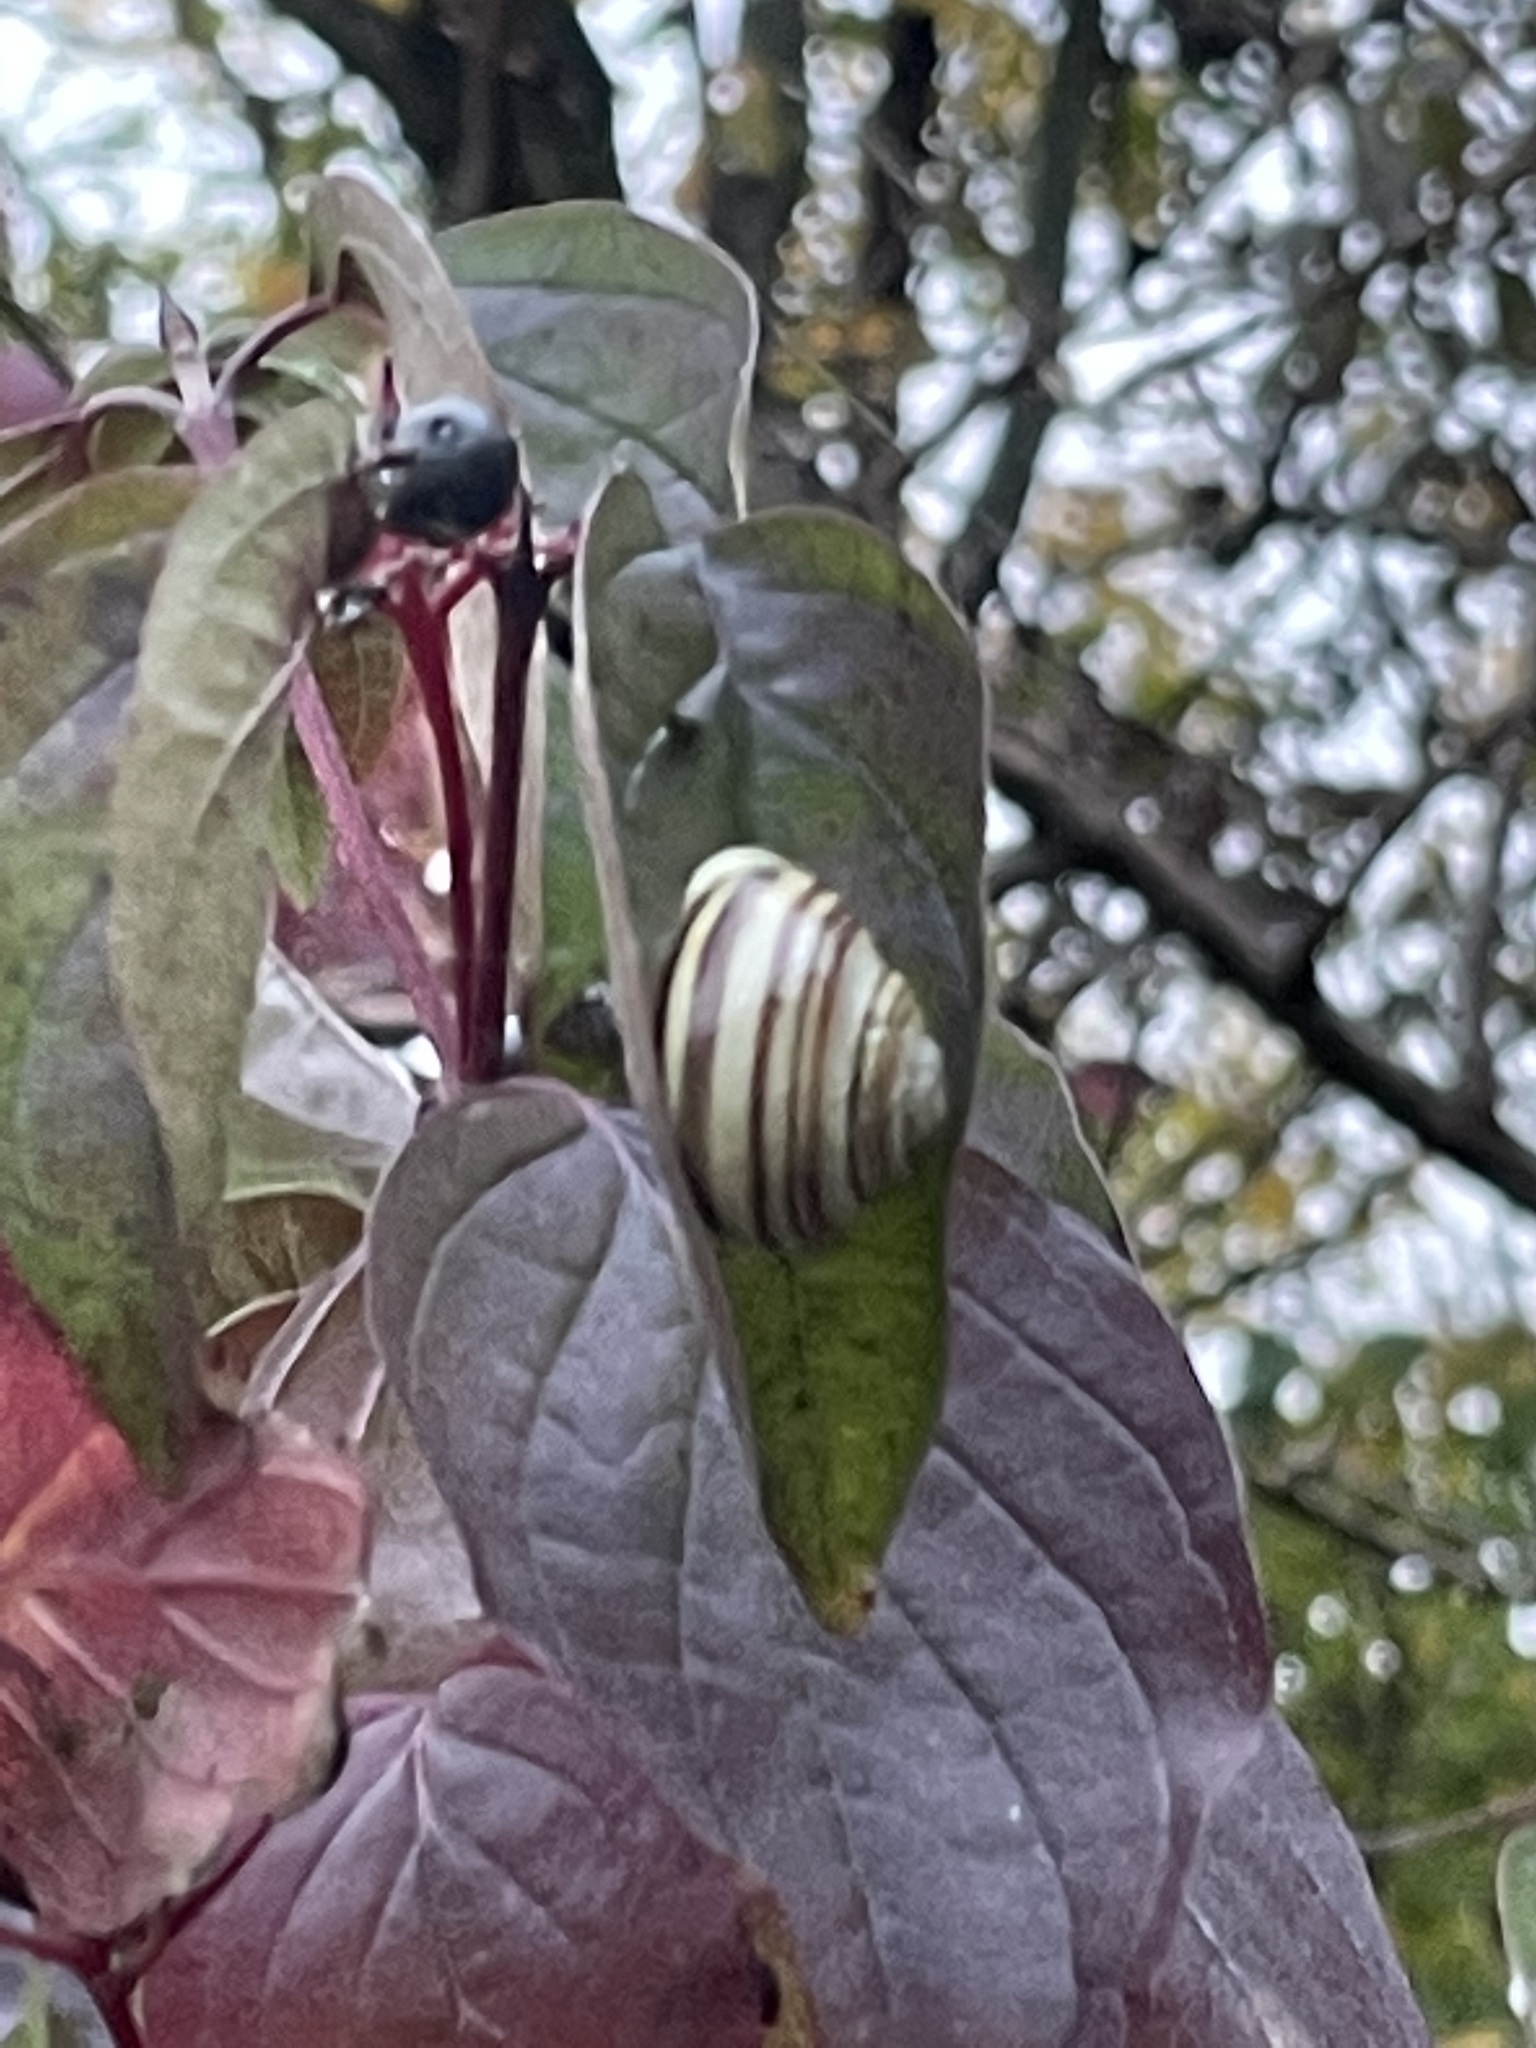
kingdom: Animalia
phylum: Mollusca
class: Gastropoda
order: Stylommatophora
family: Helicidae
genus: Cepaea
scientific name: Cepaea hortensis
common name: White-lip gardensnail
